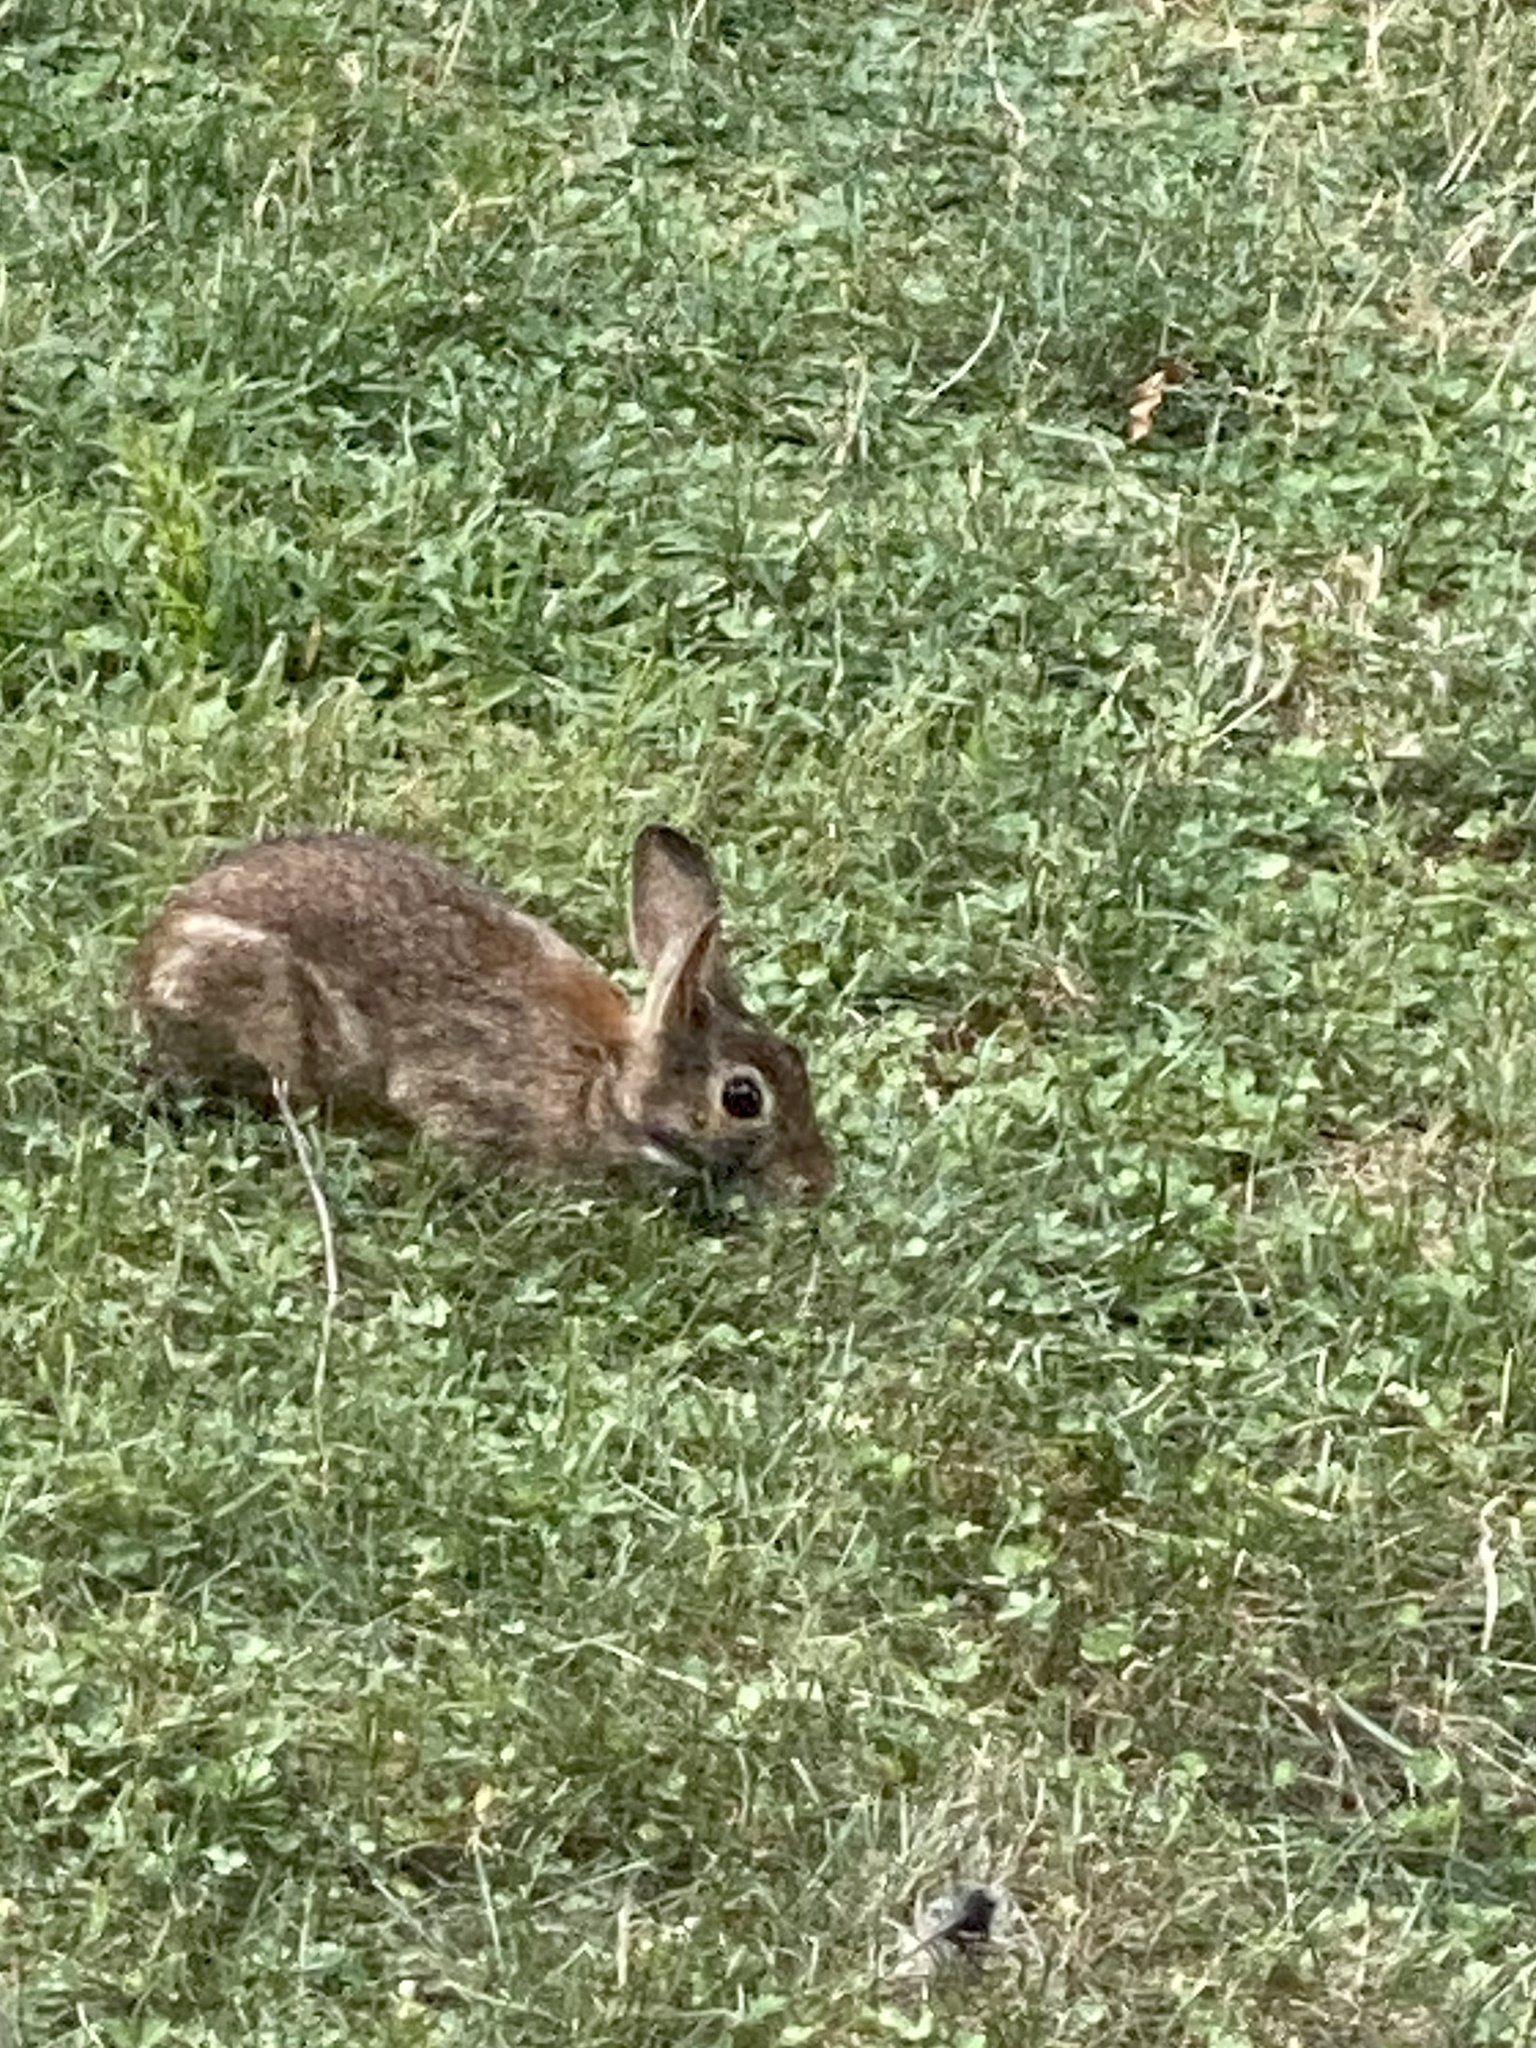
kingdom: Animalia
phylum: Chordata
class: Mammalia
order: Lagomorpha
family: Leporidae
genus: Sylvilagus
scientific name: Sylvilagus floridanus
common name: Eastern cottontail
